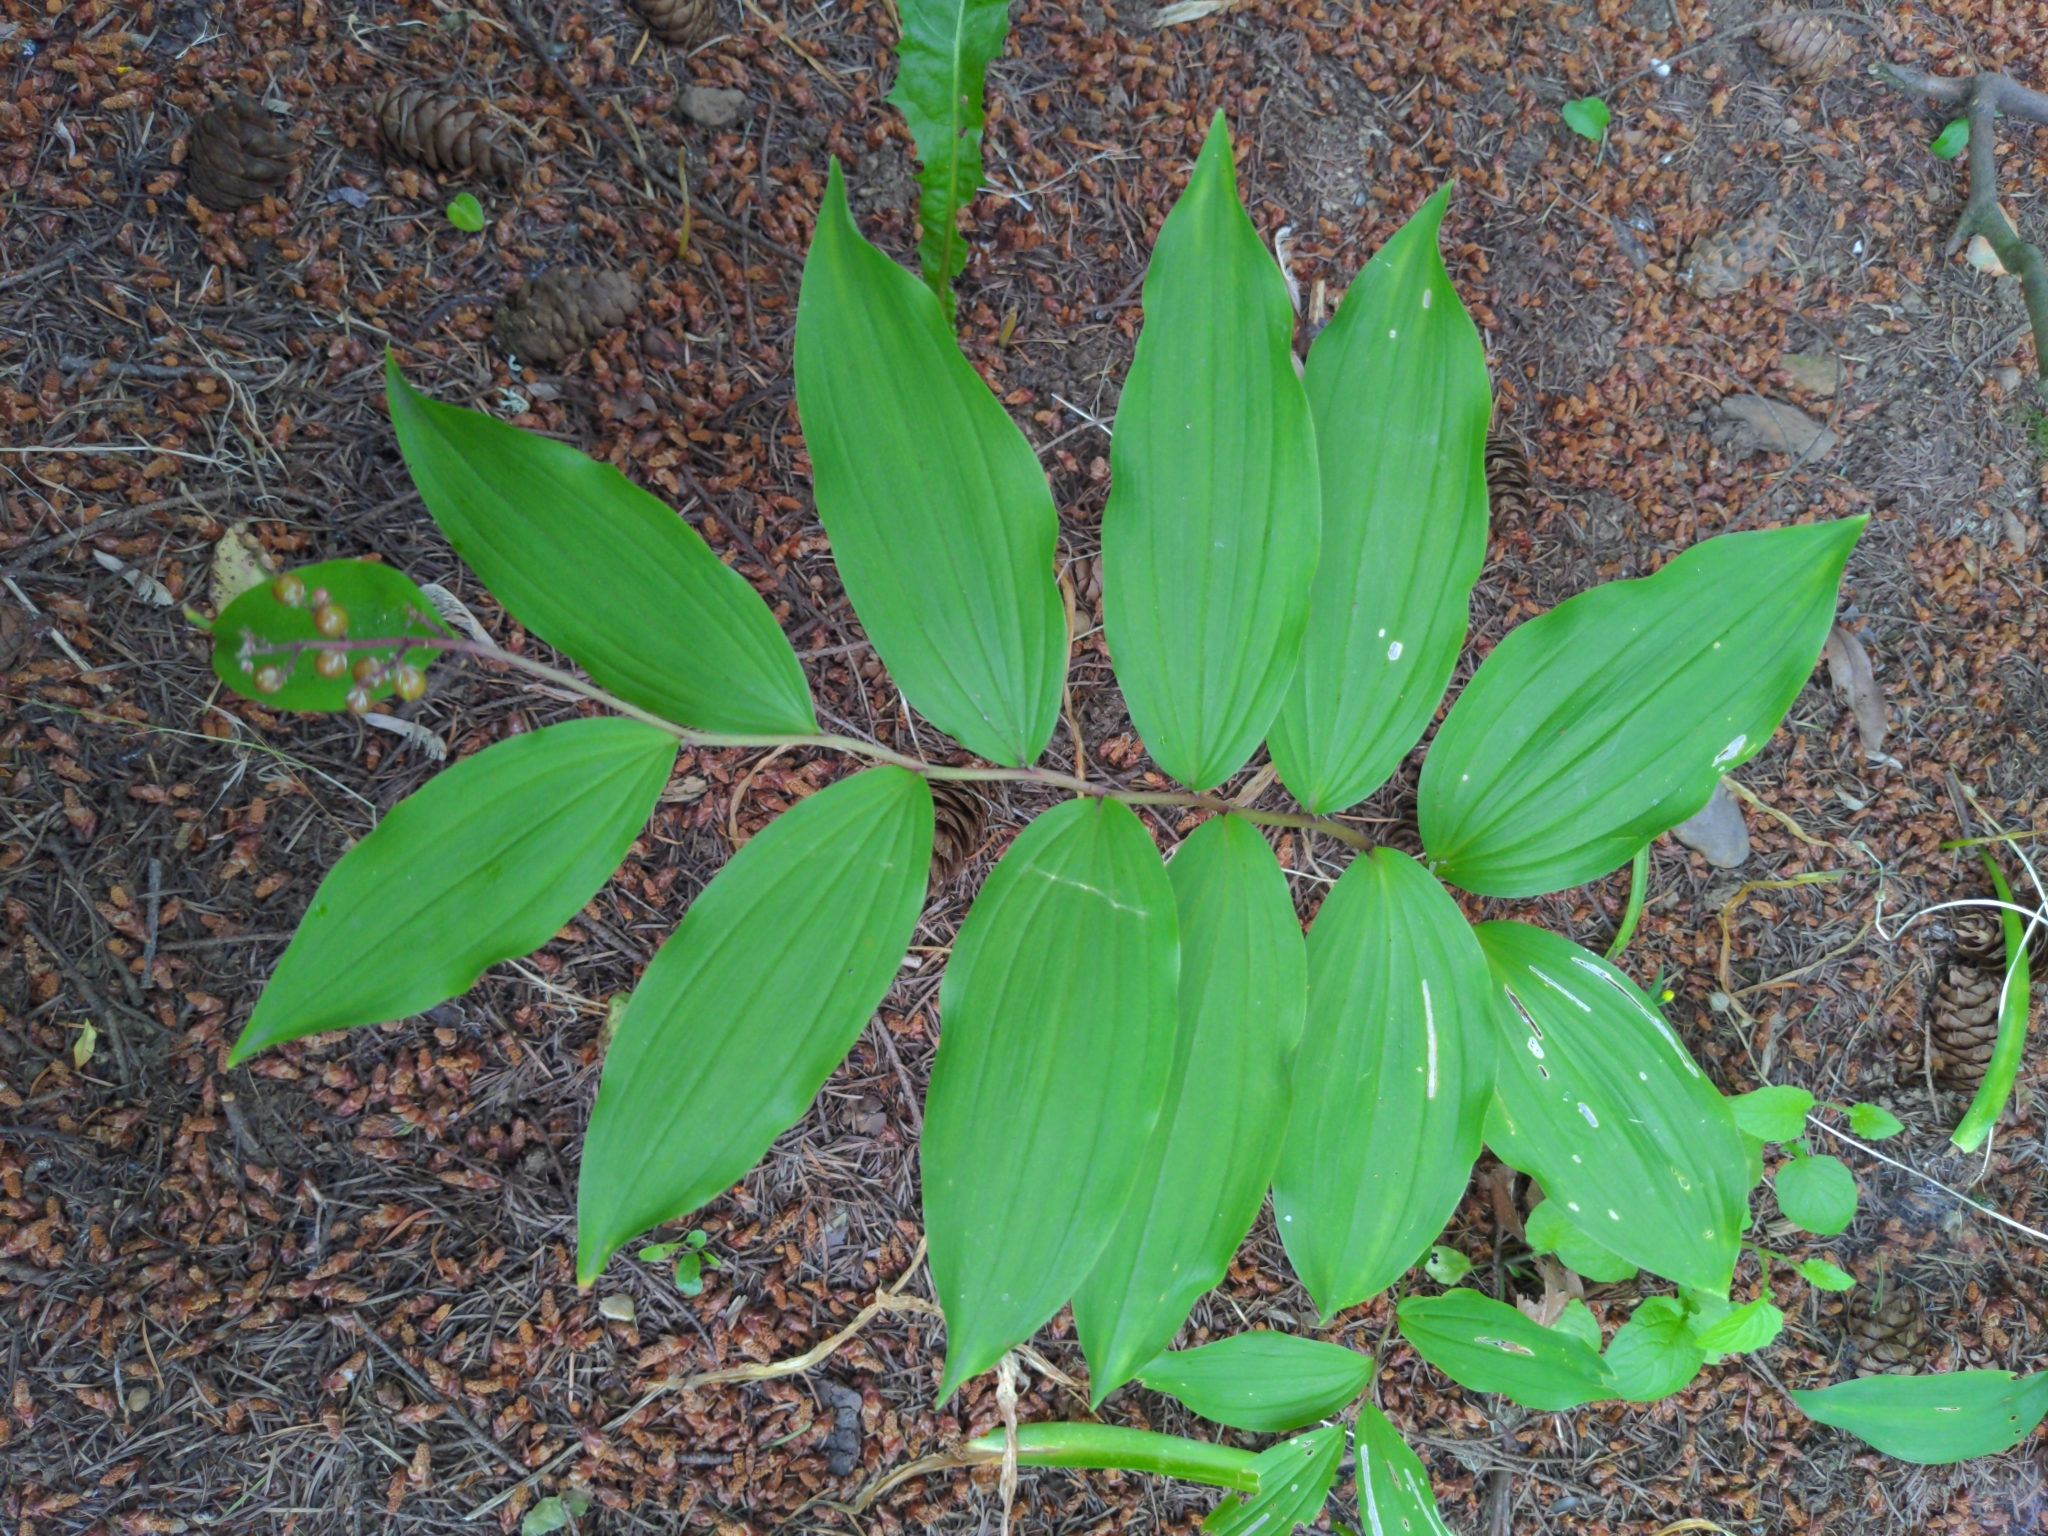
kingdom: Plantae
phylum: Tracheophyta
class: Liliopsida
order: Asparagales
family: Asparagaceae
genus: Maianthemum
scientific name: Maianthemum racemosum
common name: False spikenard
